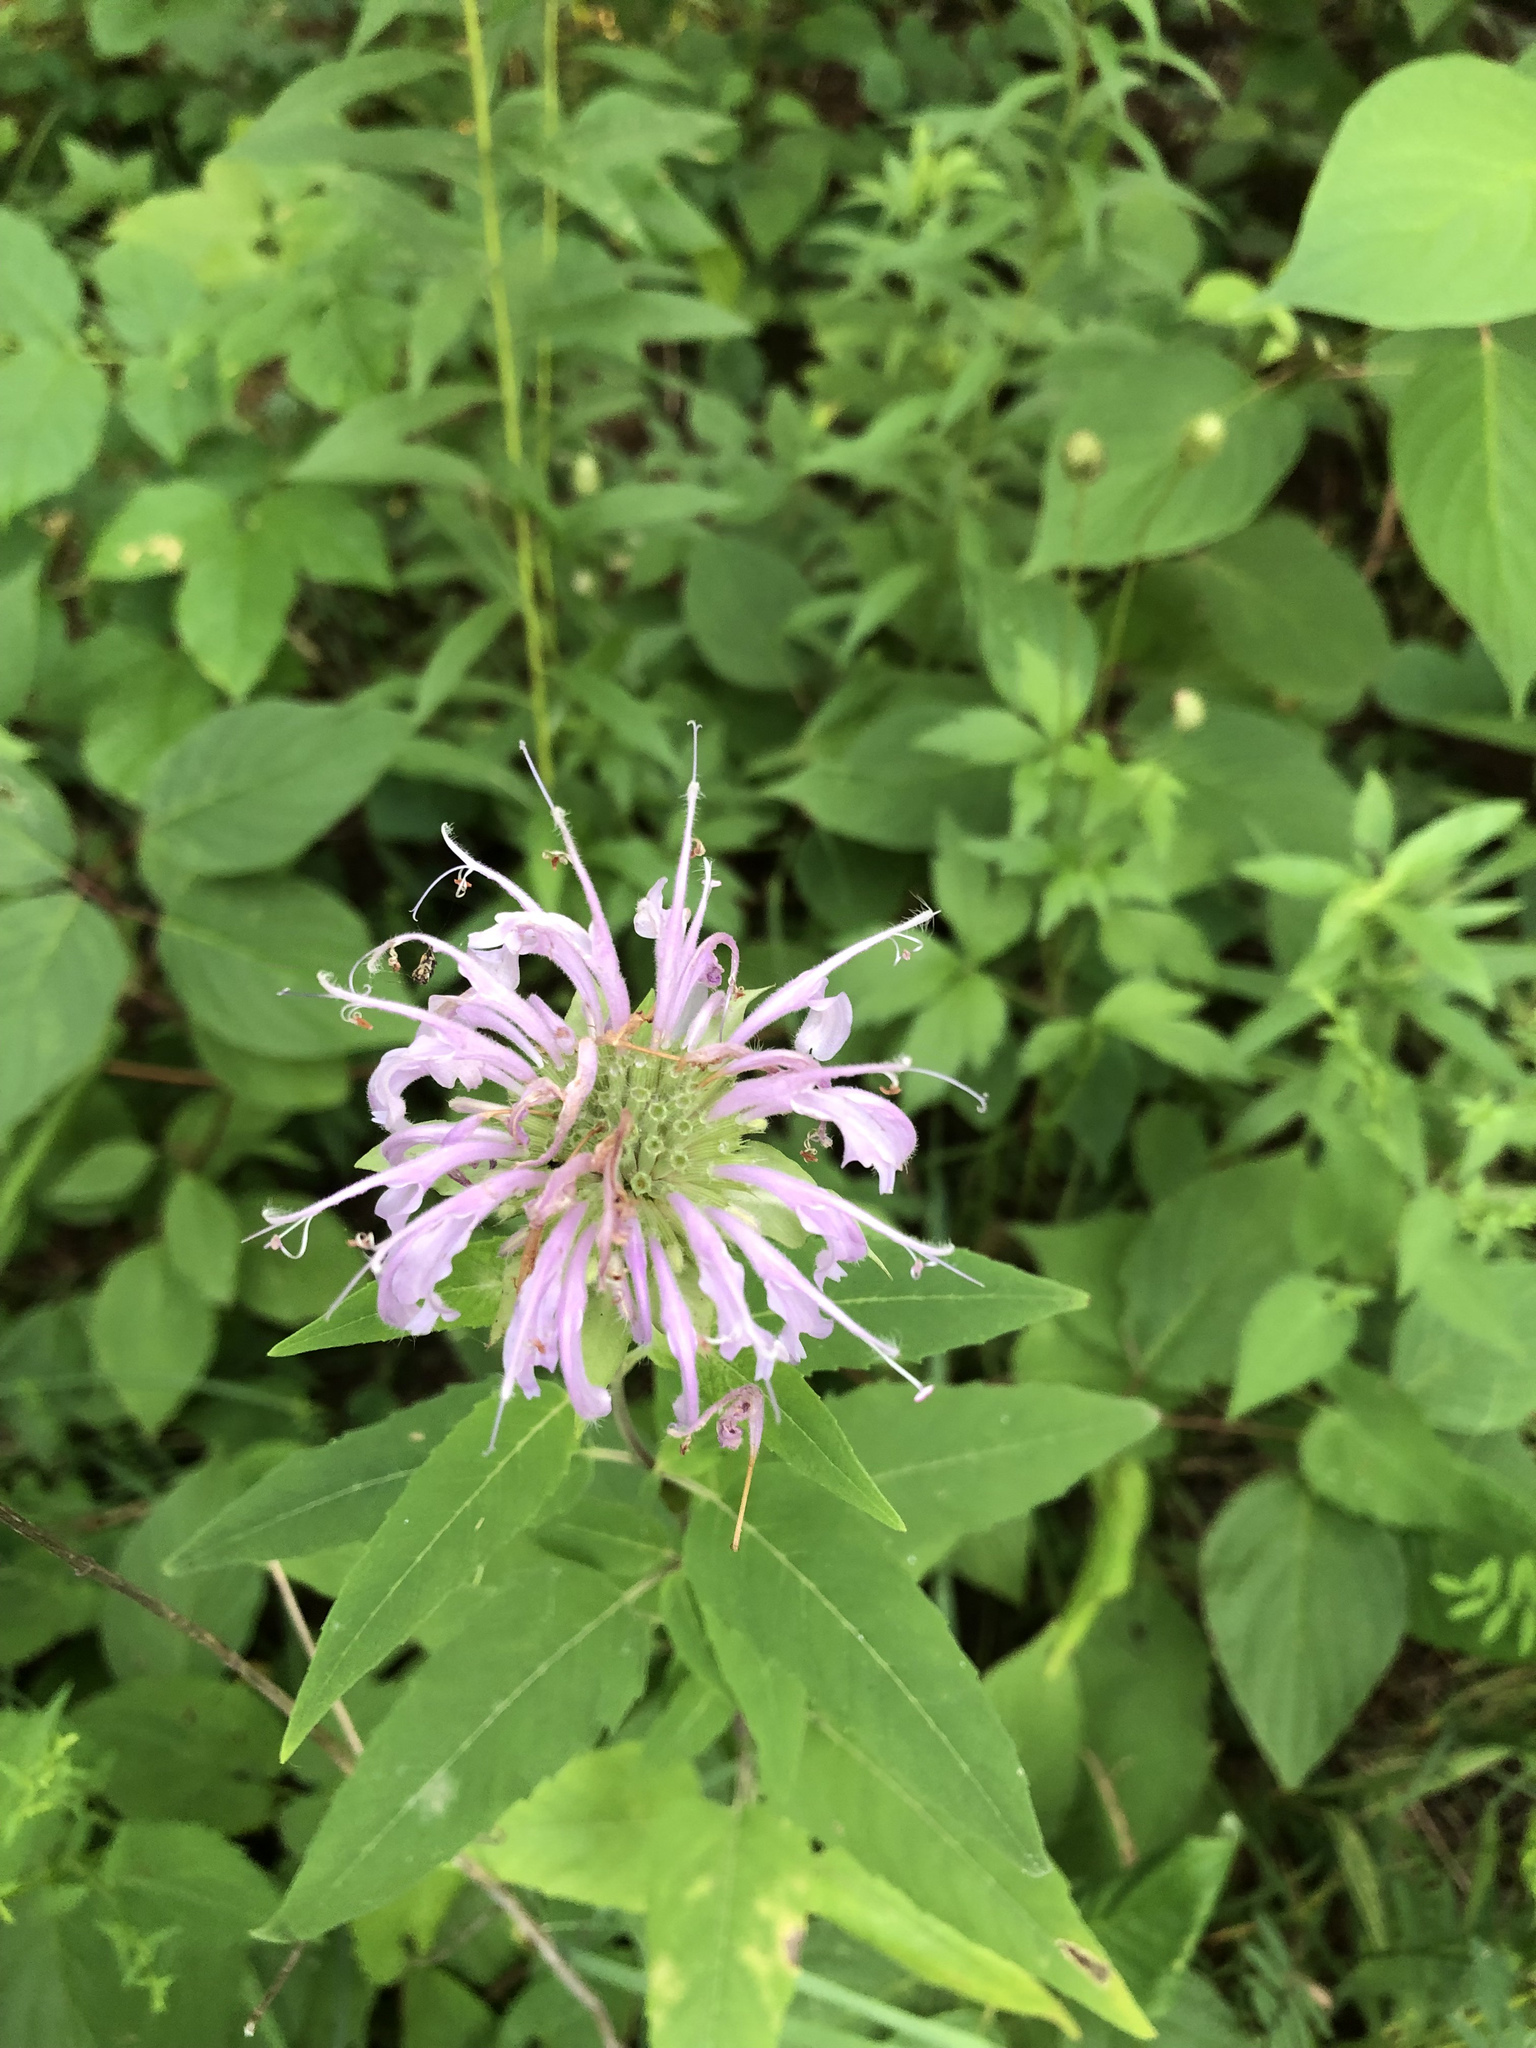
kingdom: Plantae
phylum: Tracheophyta
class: Magnoliopsida
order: Lamiales
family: Lamiaceae
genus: Monarda
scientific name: Monarda fistulosa
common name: Purple beebalm
